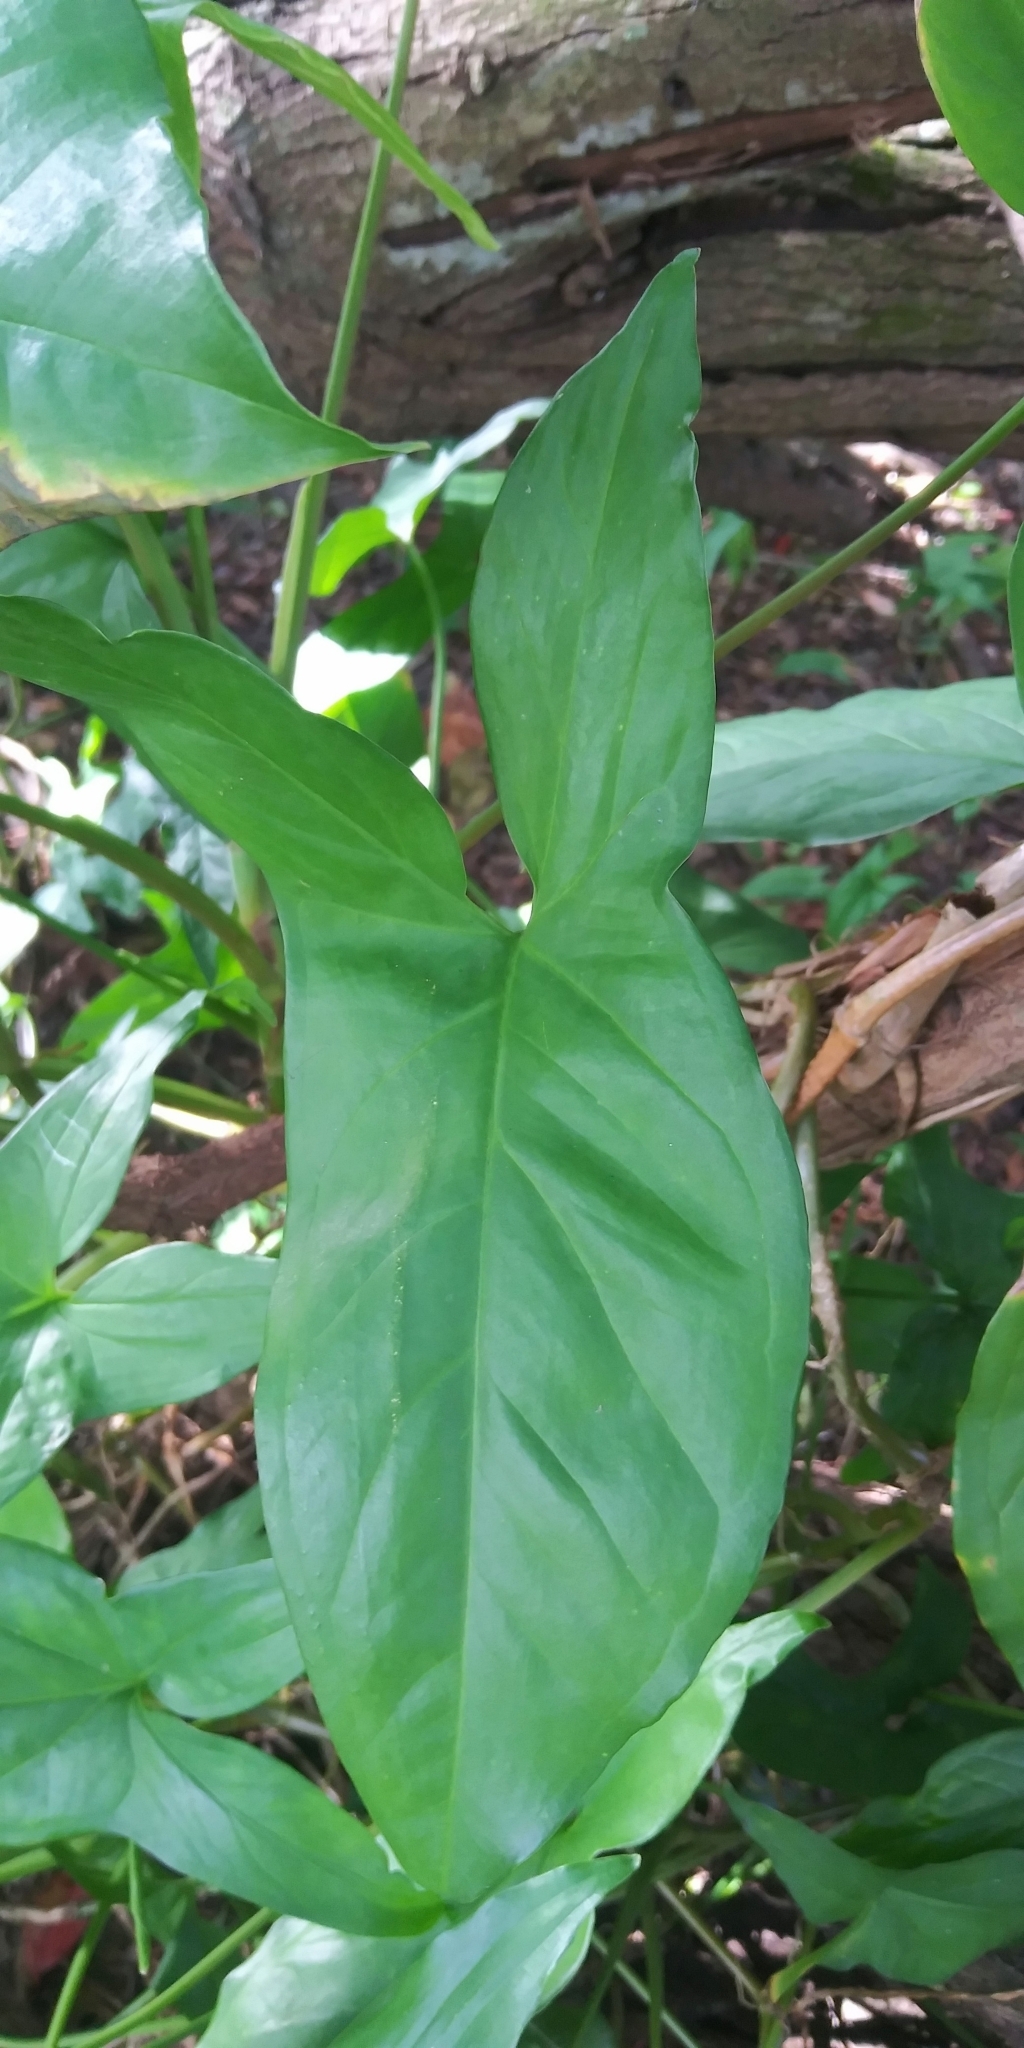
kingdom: Plantae
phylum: Tracheophyta
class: Liliopsida
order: Alismatales
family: Araceae
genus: Syngonium
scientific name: Syngonium podophyllum
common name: American evergreen
